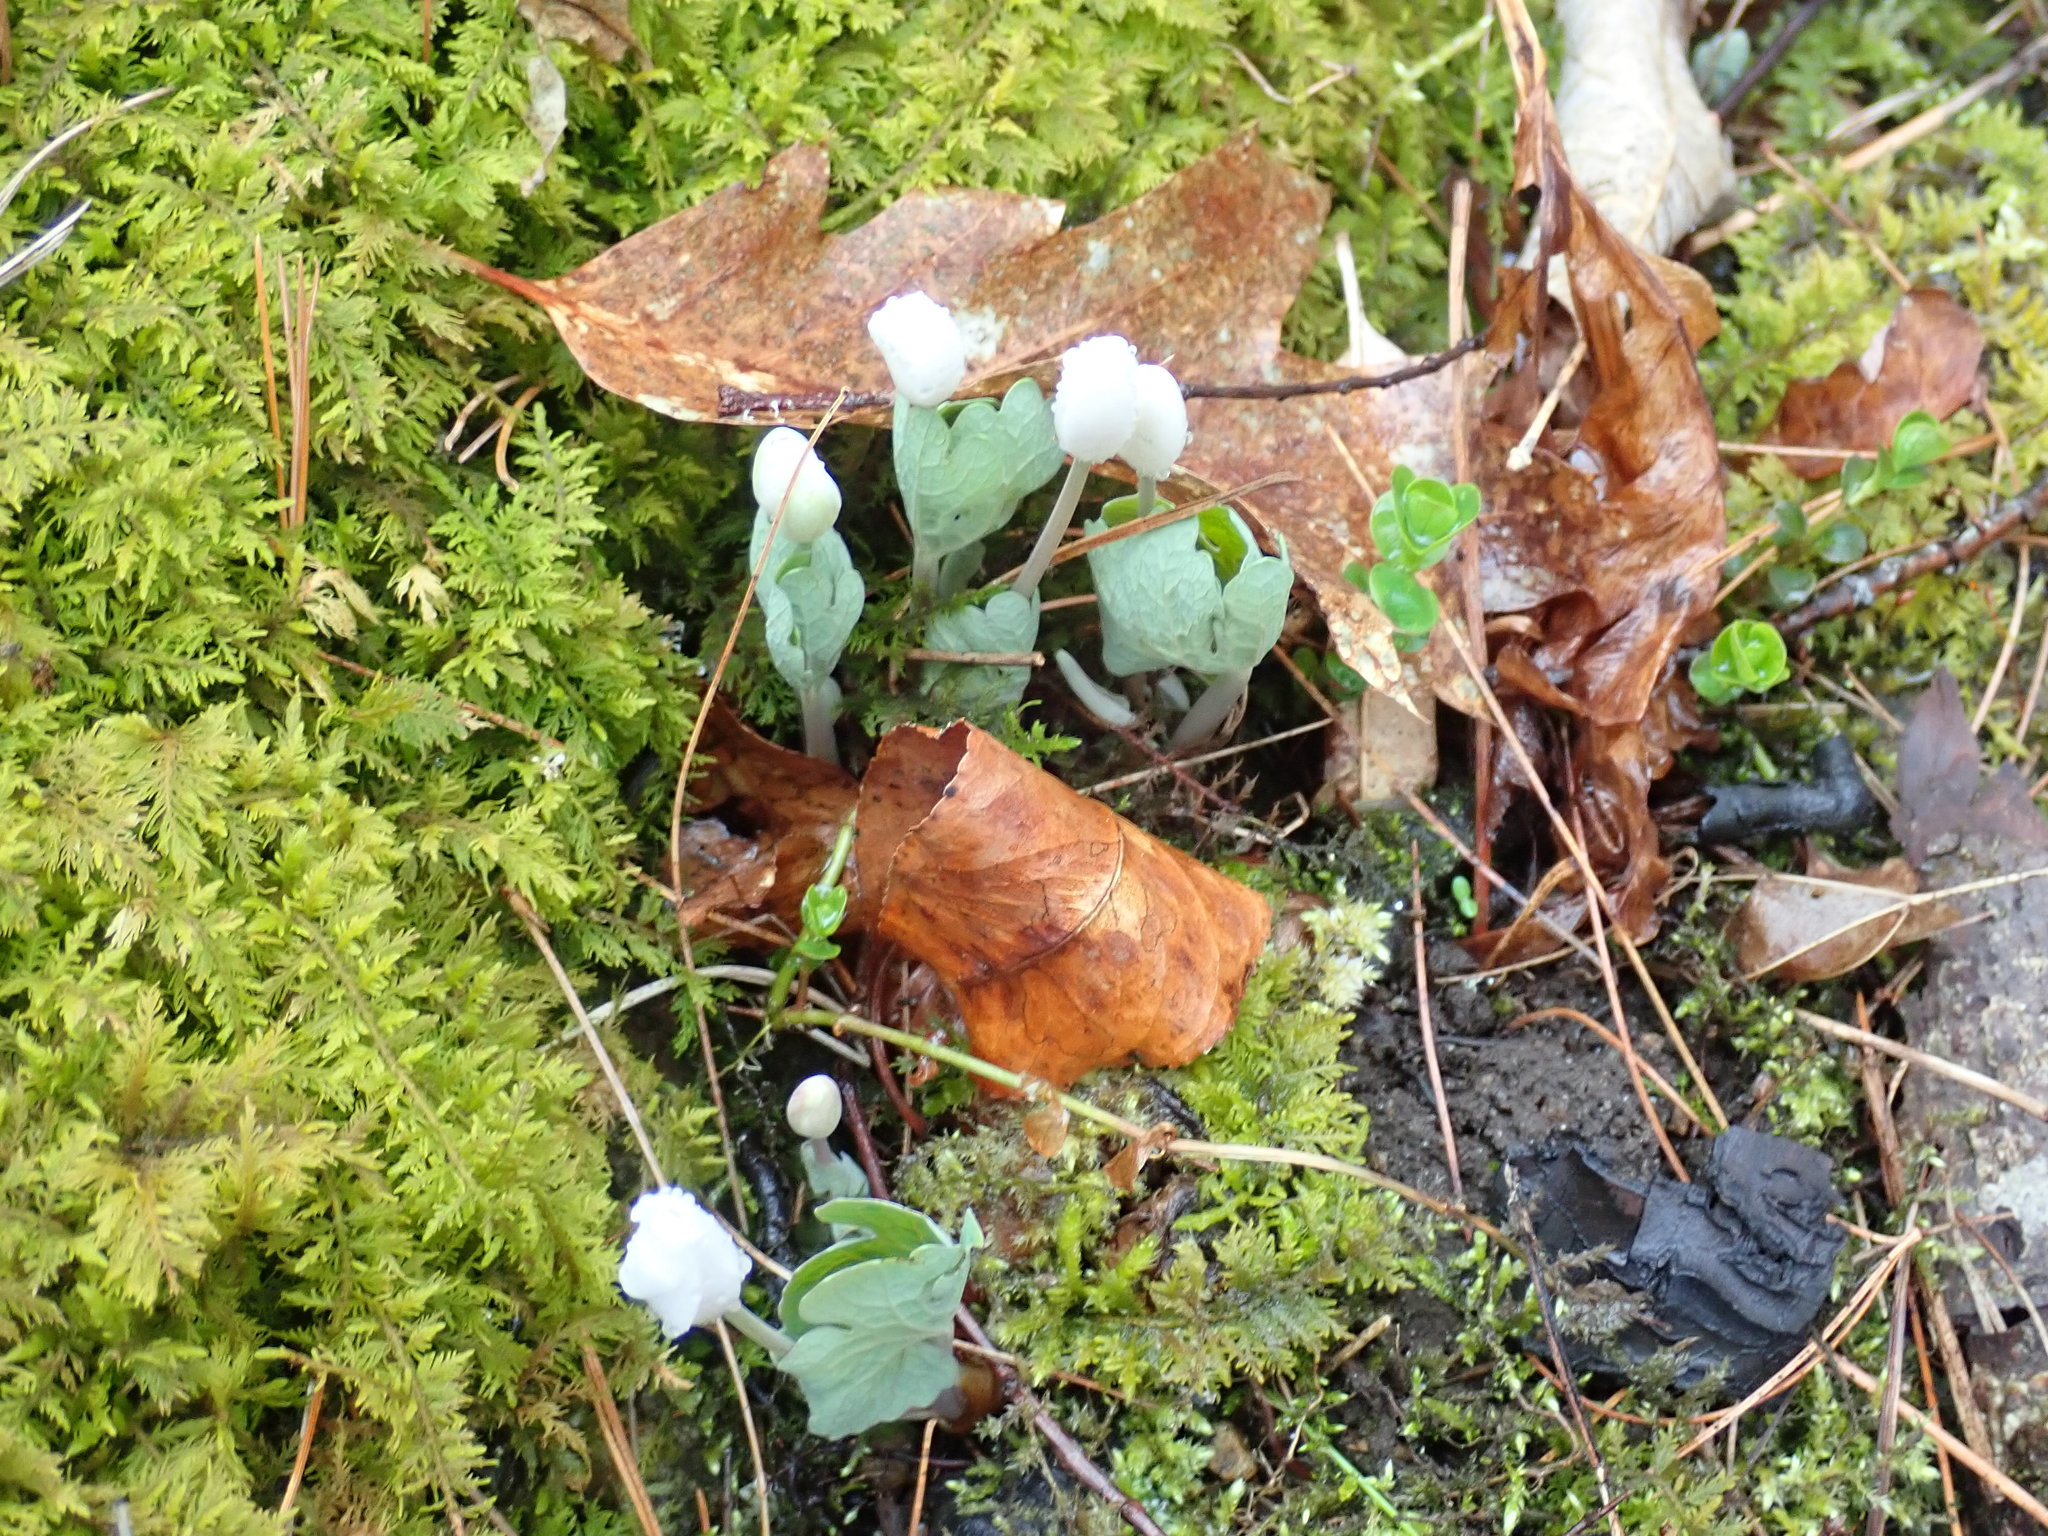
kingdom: Plantae
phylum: Tracheophyta
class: Magnoliopsida
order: Ranunculales
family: Papaveraceae
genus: Sanguinaria
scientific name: Sanguinaria canadensis
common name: Bloodroot
